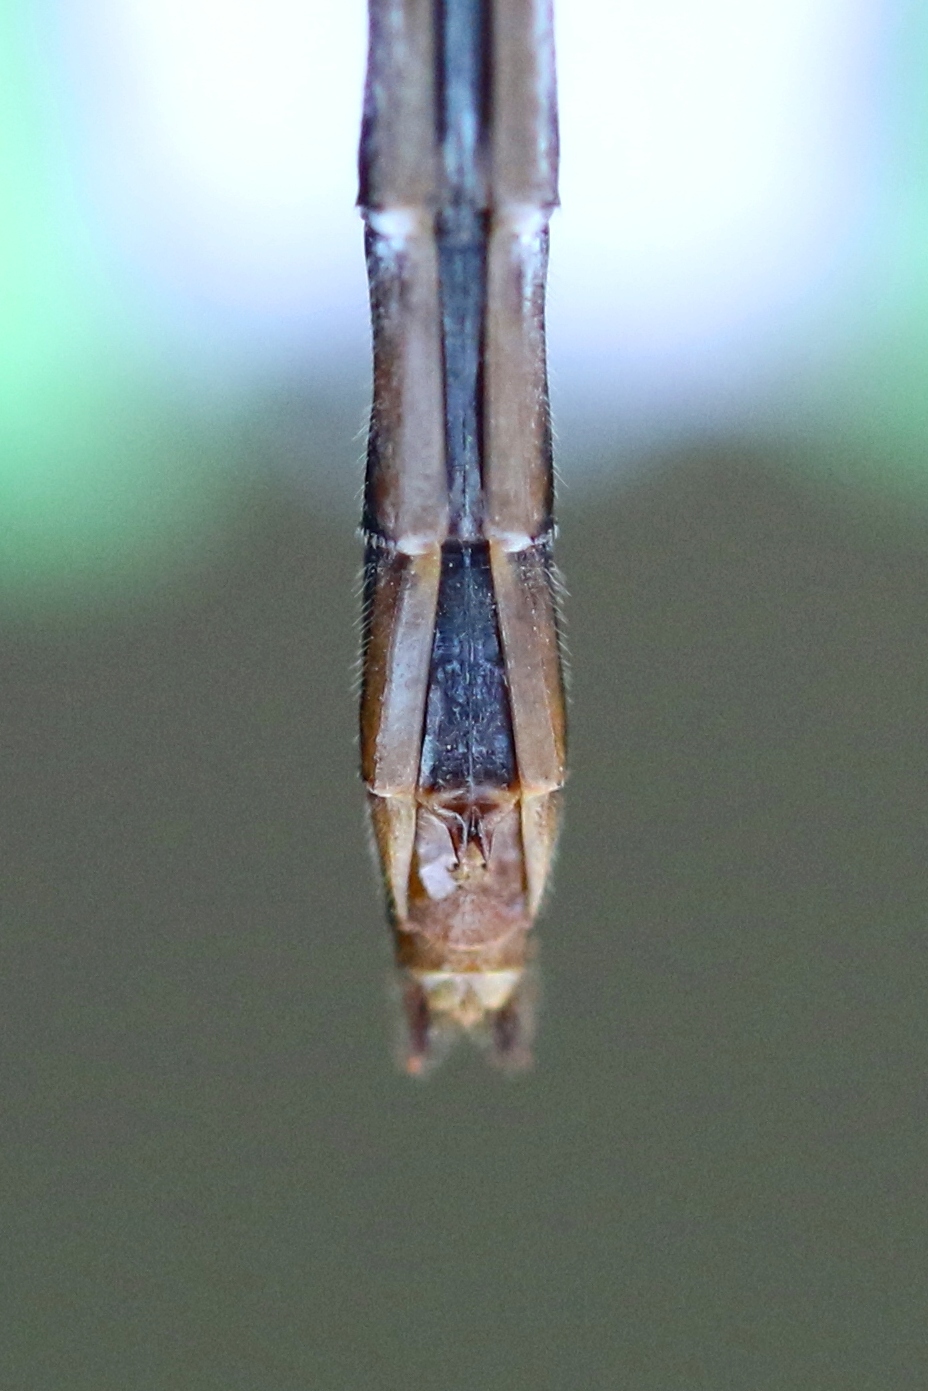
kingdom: Animalia
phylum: Arthropoda
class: Insecta
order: Odonata
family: Libellulidae
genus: Sympetrum
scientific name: Sympetrum obtrusum
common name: White-faced meadowhawk
